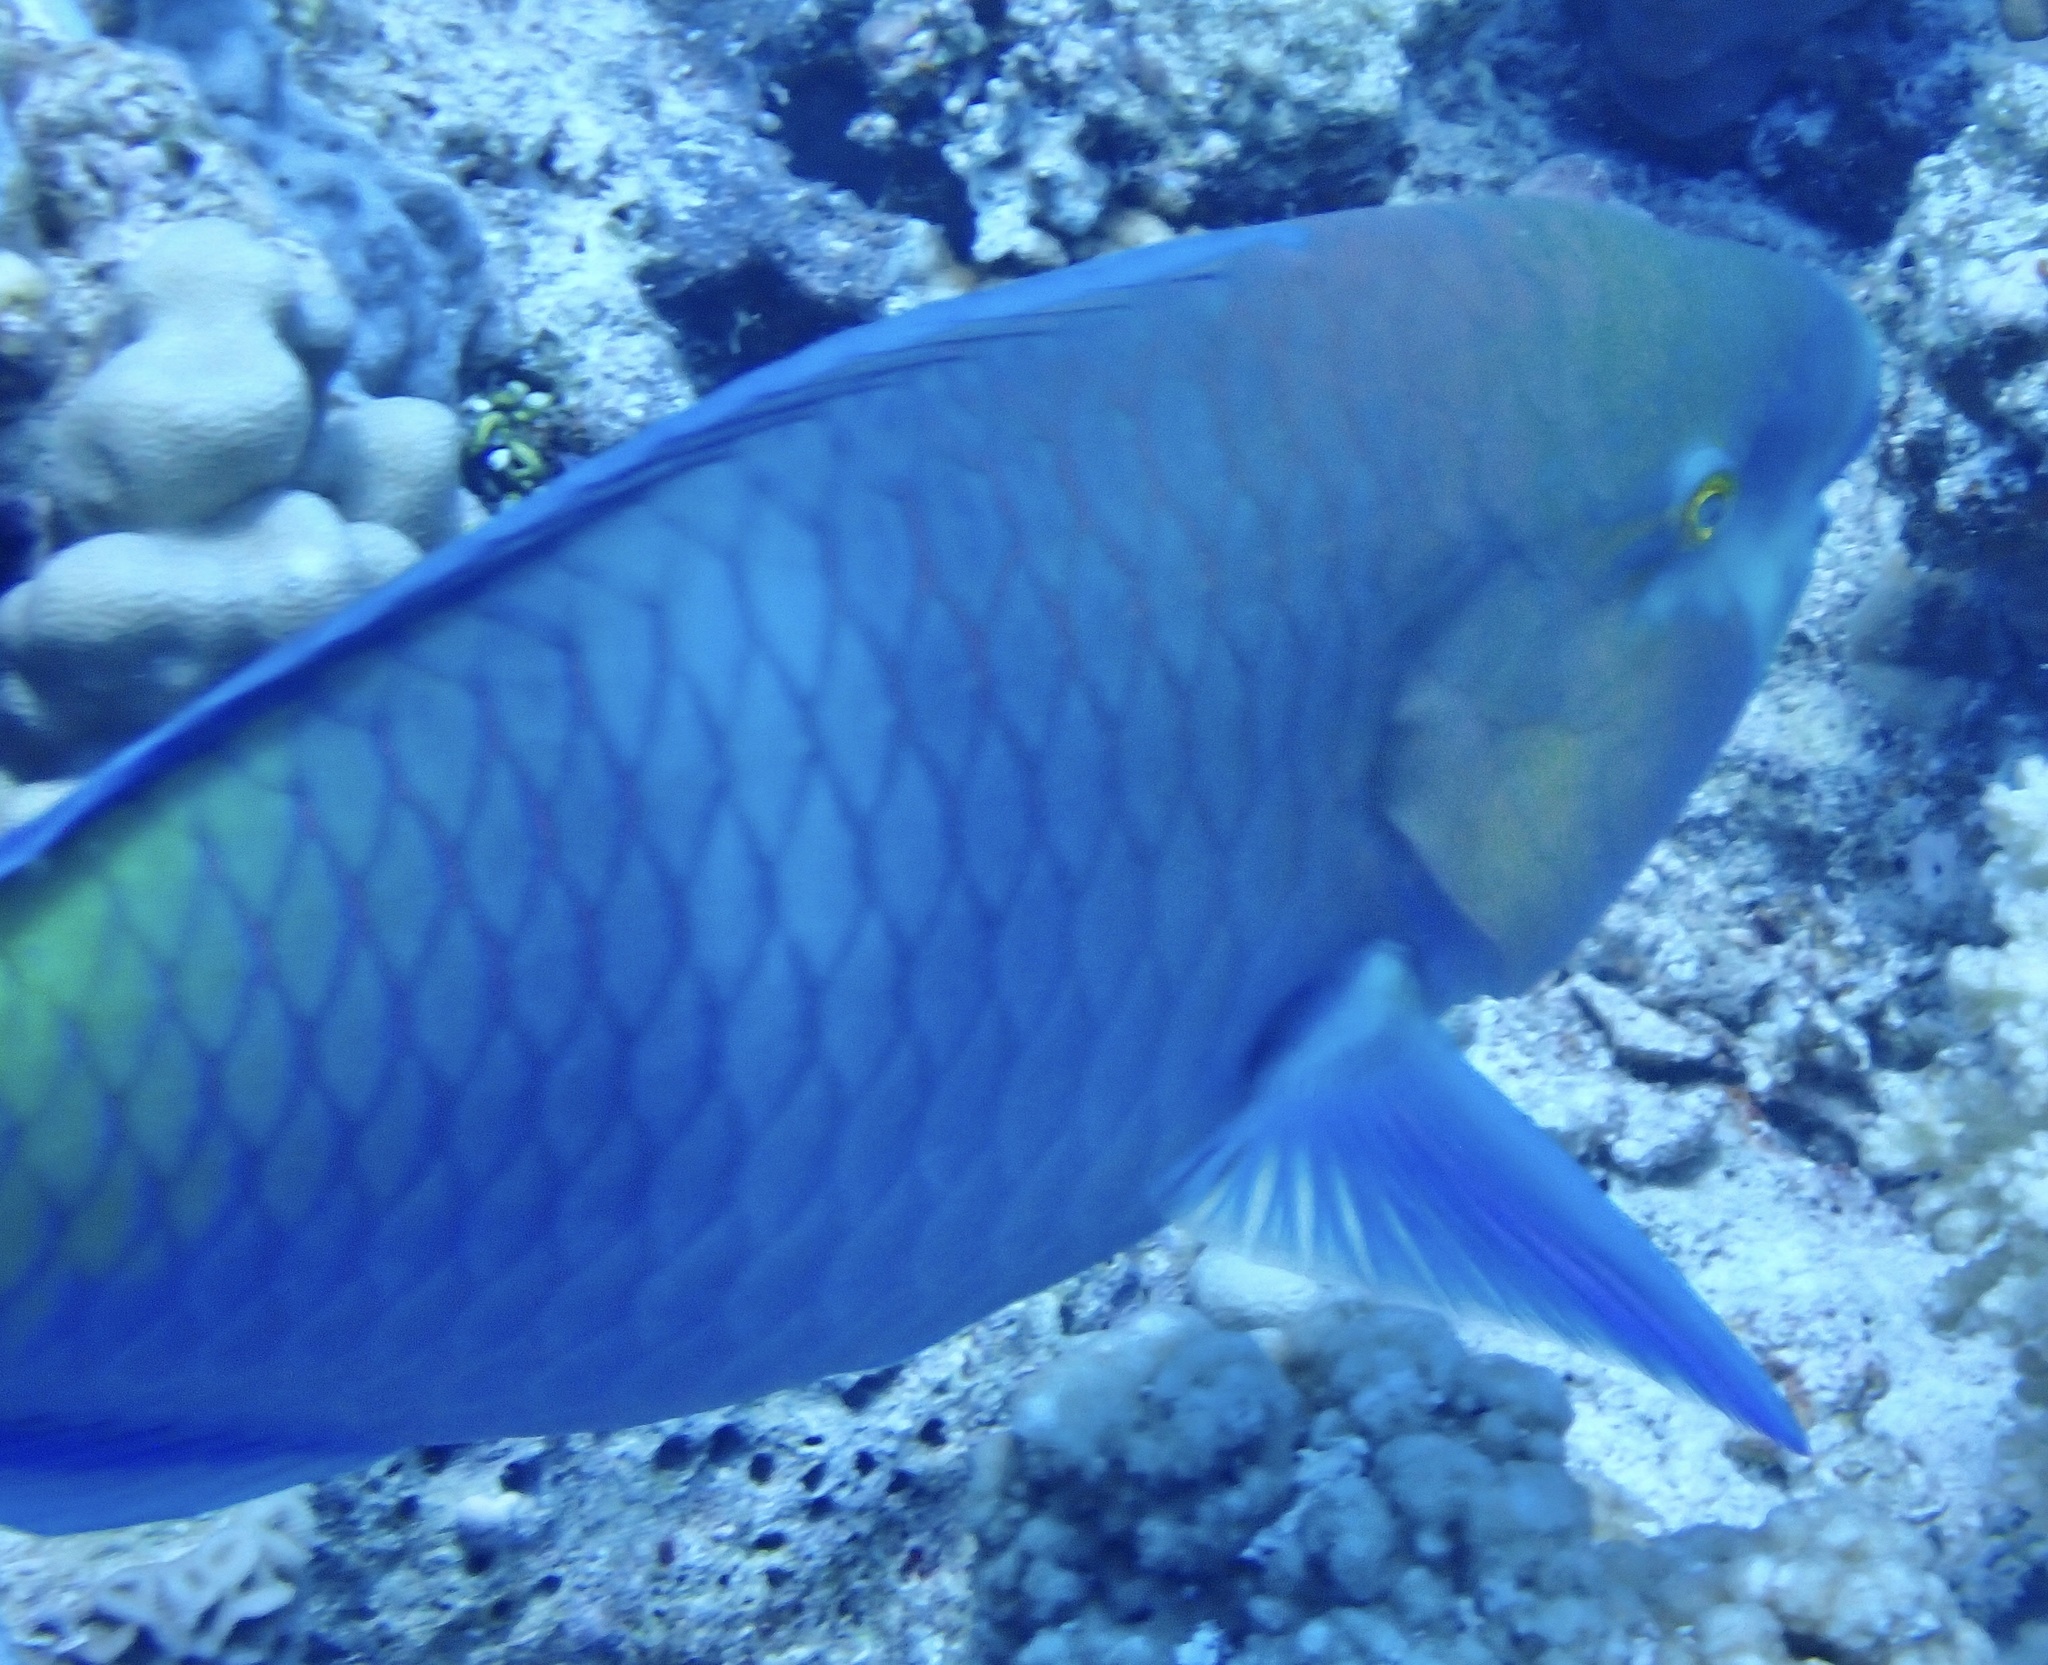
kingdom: Animalia
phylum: Chordata
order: Perciformes
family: Scaridae
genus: Scarus
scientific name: Scarus ferrugineus
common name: Rusty parrotfish
